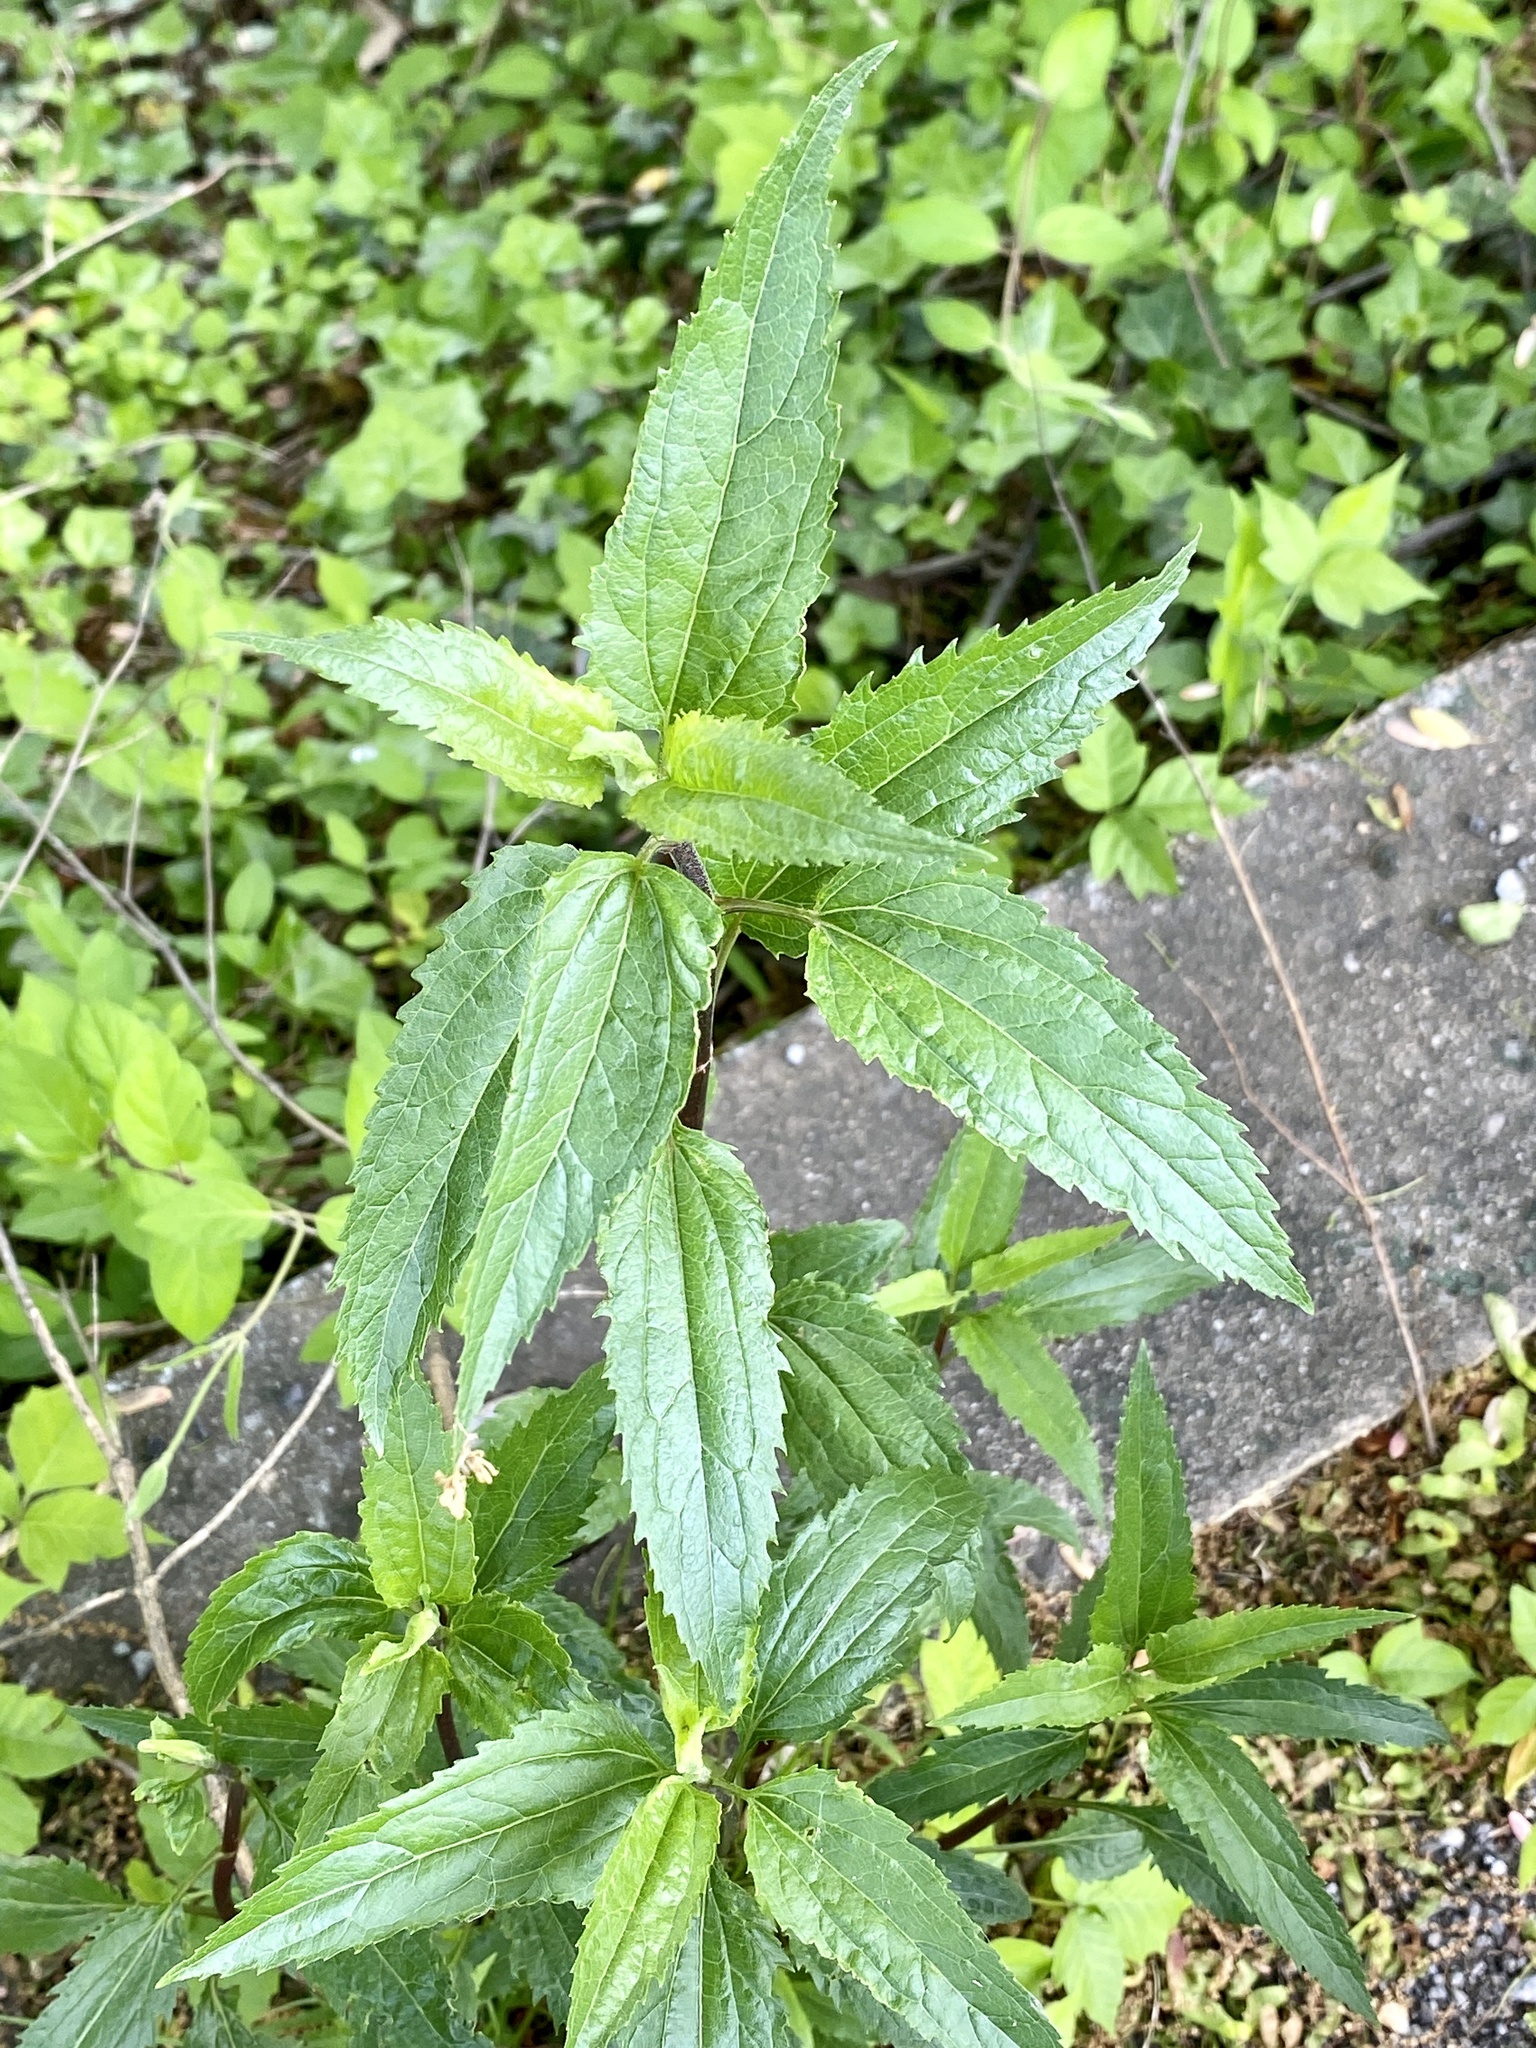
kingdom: Plantae
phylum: Tracheophyta
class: Magnoliopsida
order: Asterales
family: Asteraceae
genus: Eupatorium
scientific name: Eupatorium serotinum
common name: Late boneset
